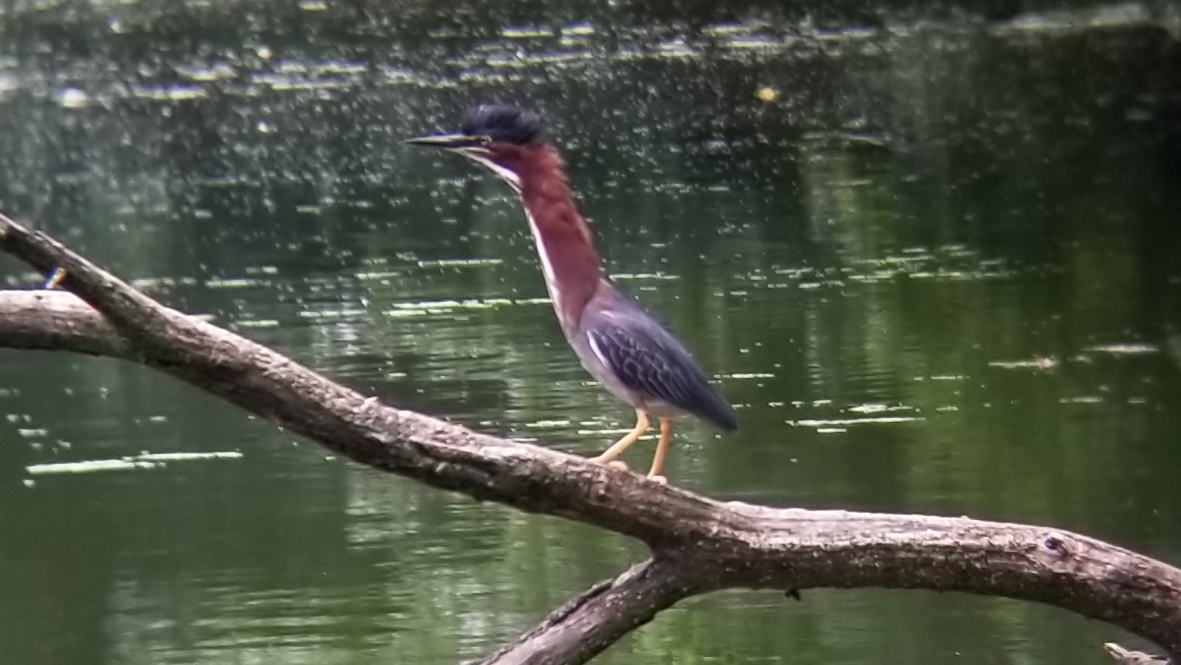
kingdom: Animalia
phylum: Chordata
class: Aves
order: Pelecaniformes
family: Ardeidae
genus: Butorides
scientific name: Butorides virescens
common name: Green heron
